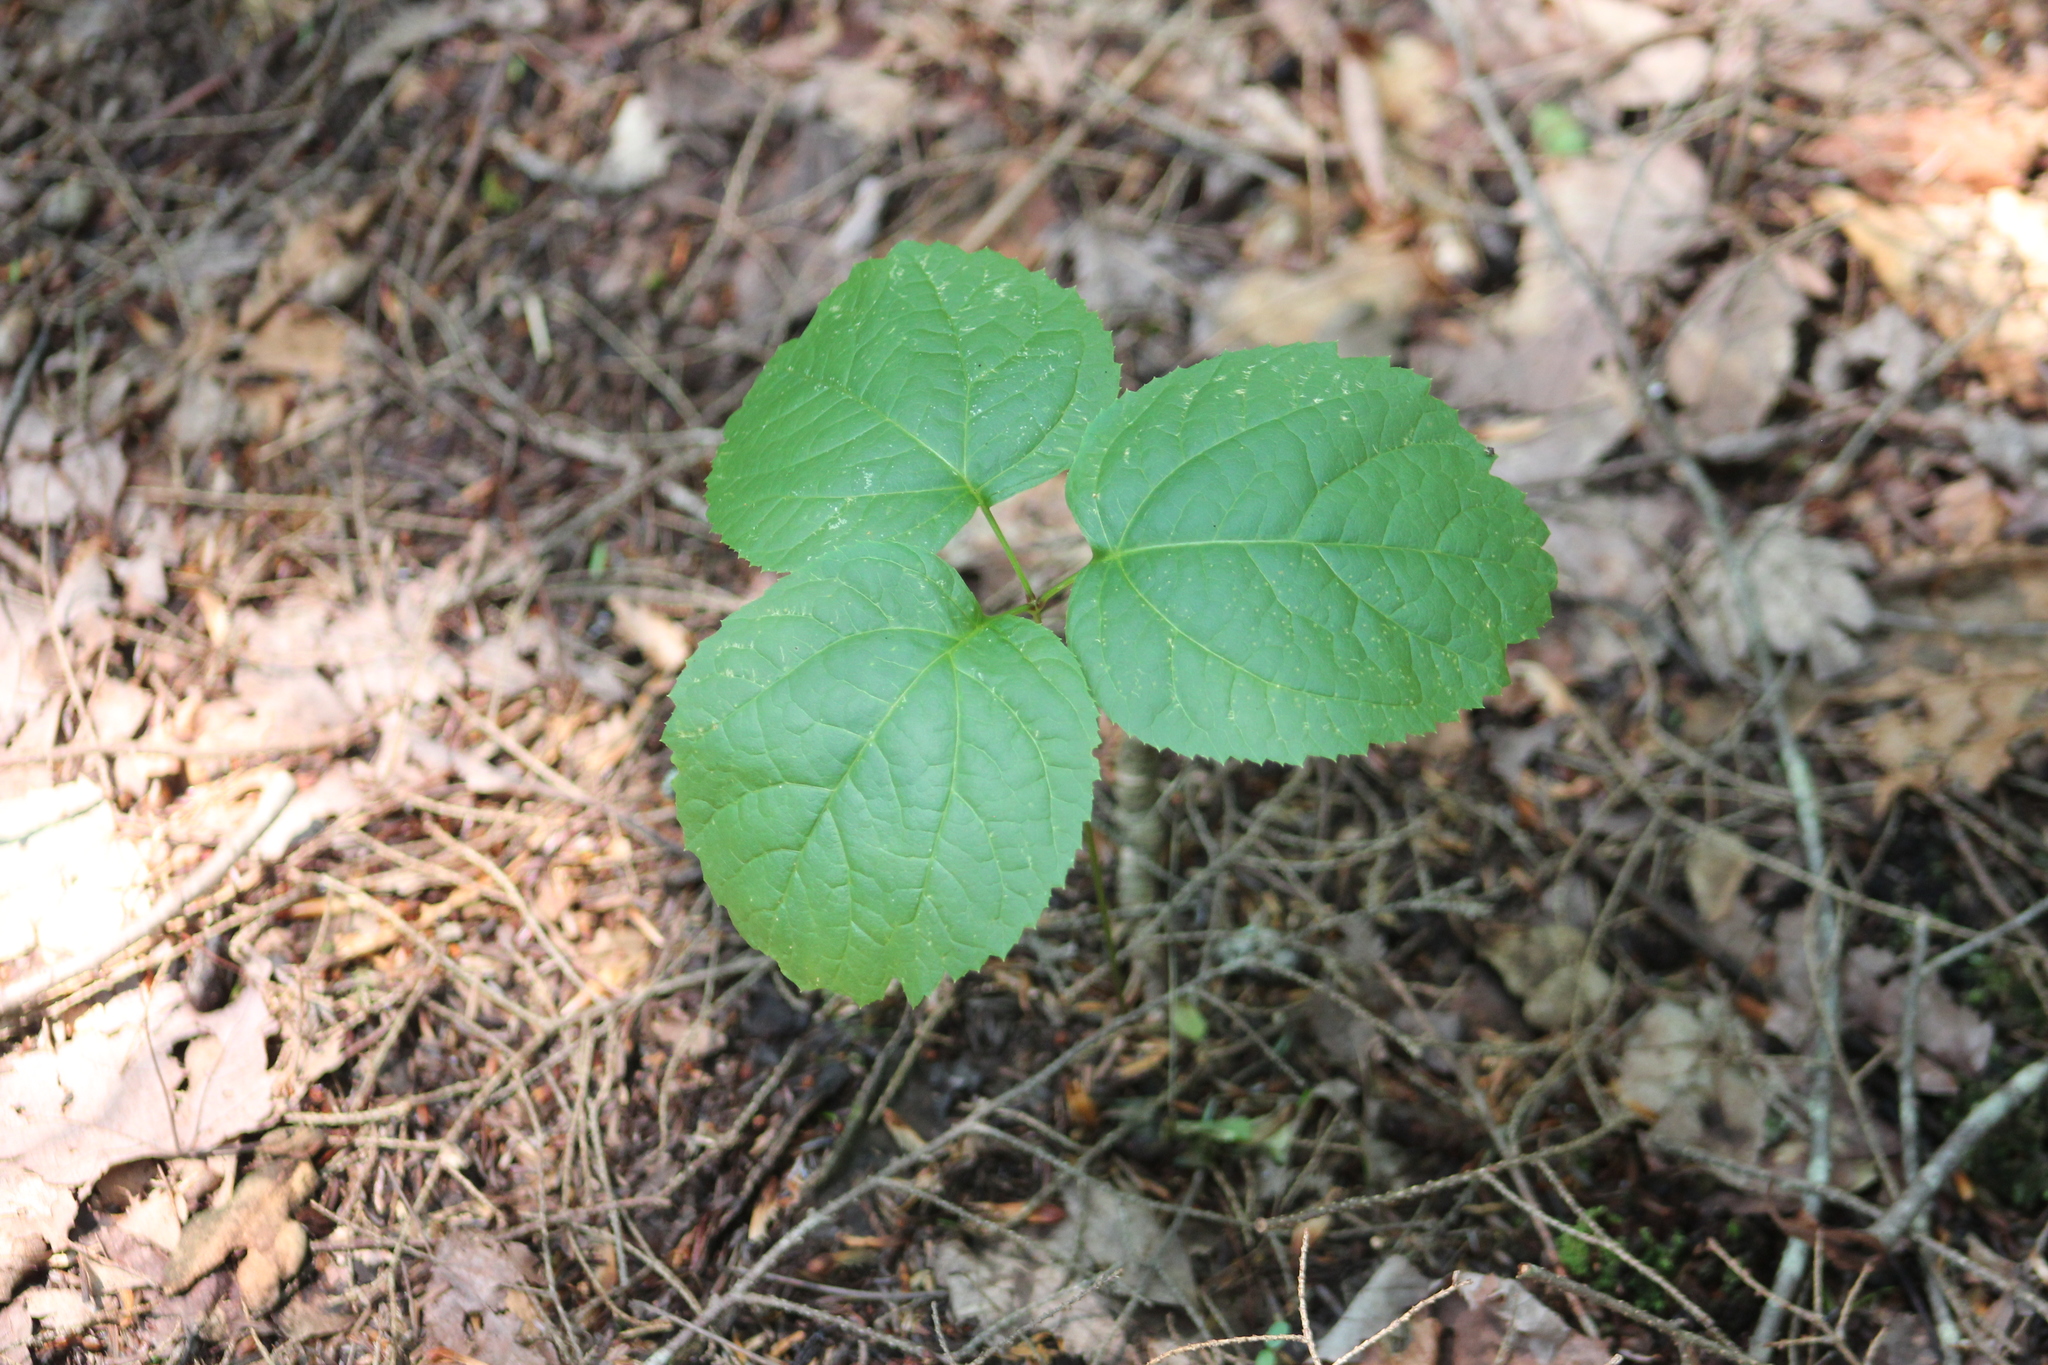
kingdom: Plantae
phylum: Tracheophyta
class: Magnoliopsida
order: Apiales
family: Araliaceae
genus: Aralia
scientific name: Aralia nudicaulis
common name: Wild sarsaparilla
